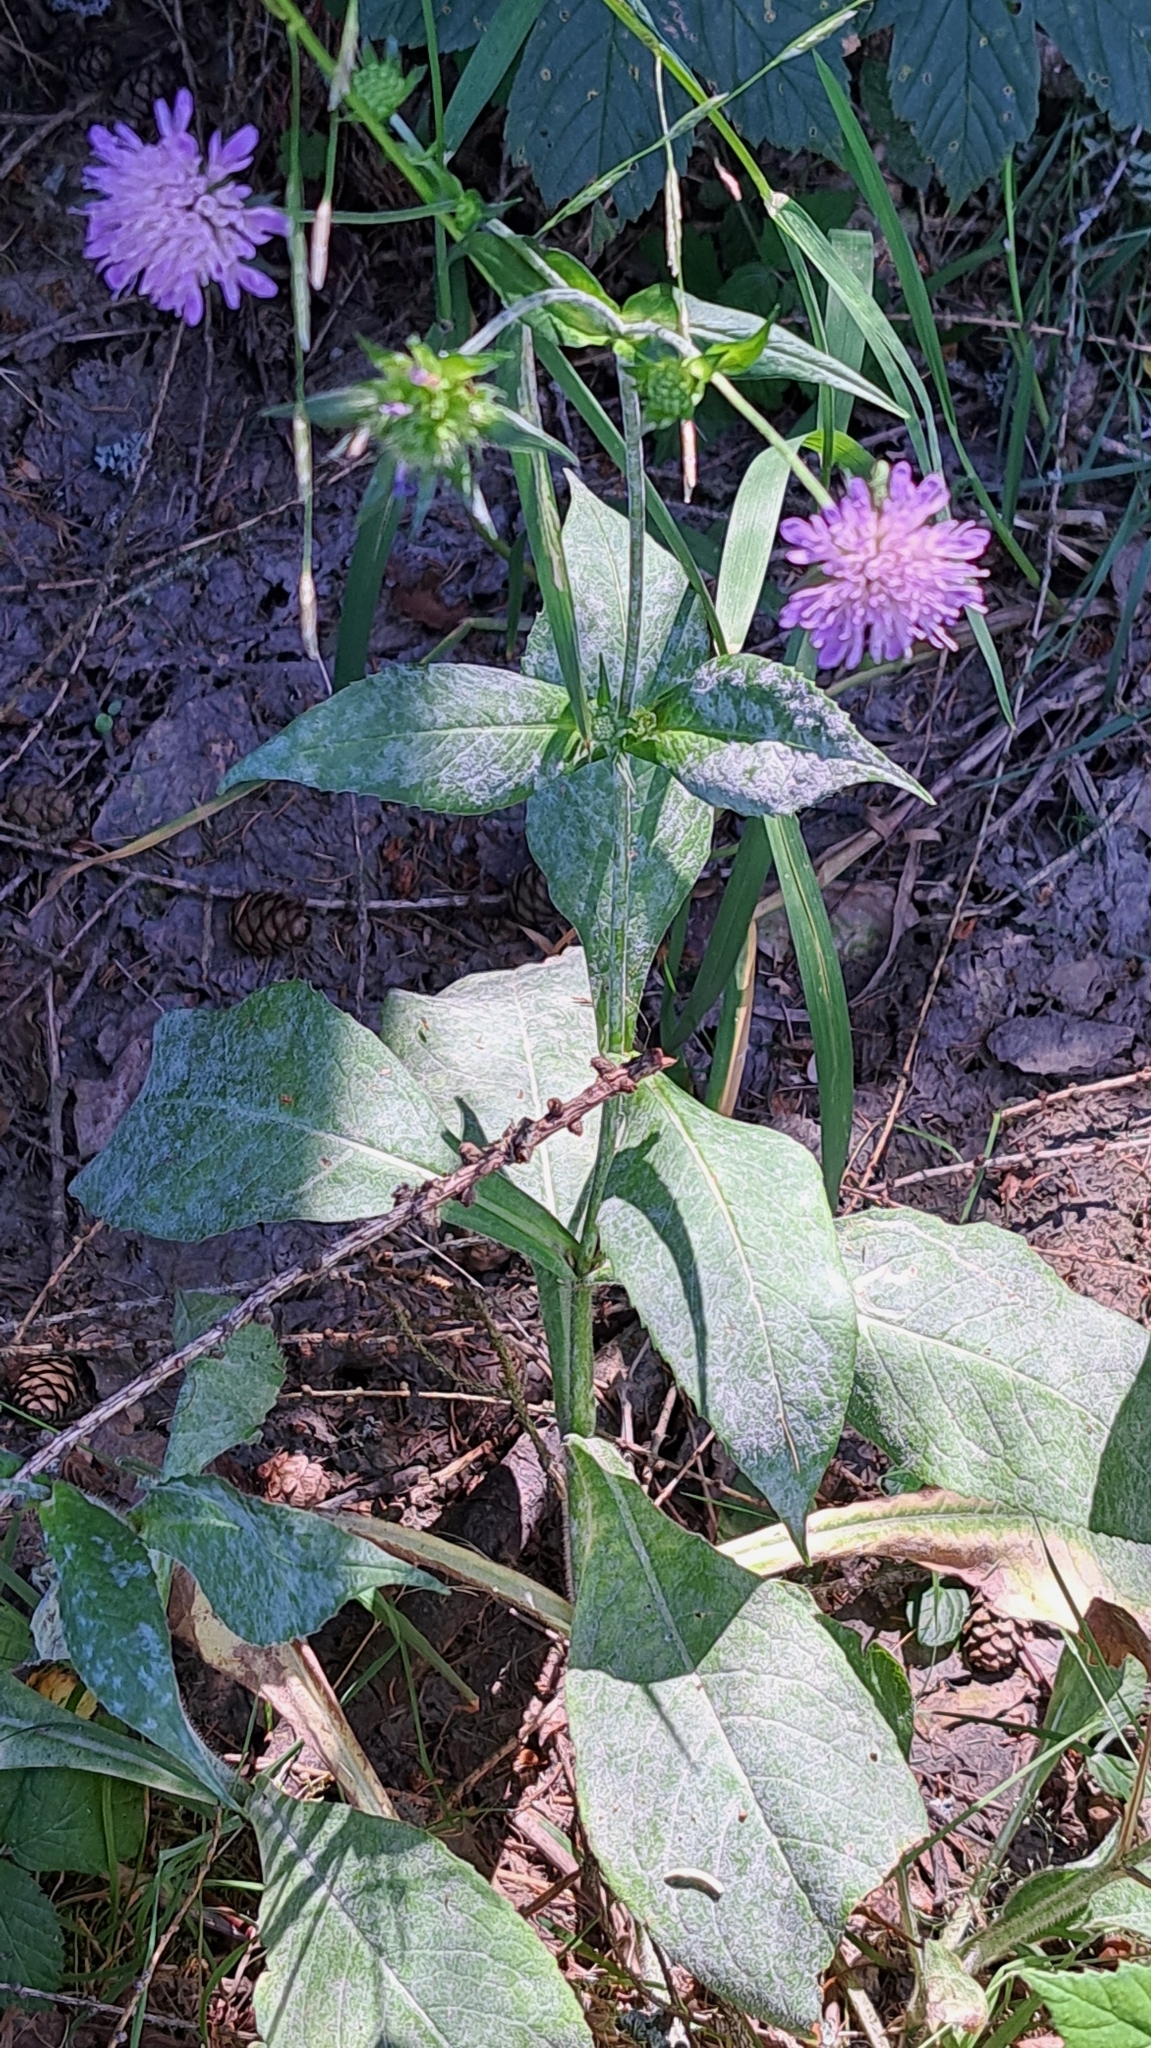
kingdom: Plantae
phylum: Tracheophyta
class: Magnoliopsida
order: Dipsacales
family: Caprifoliaceae
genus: Knautia
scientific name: Knautia dipsacifolia
